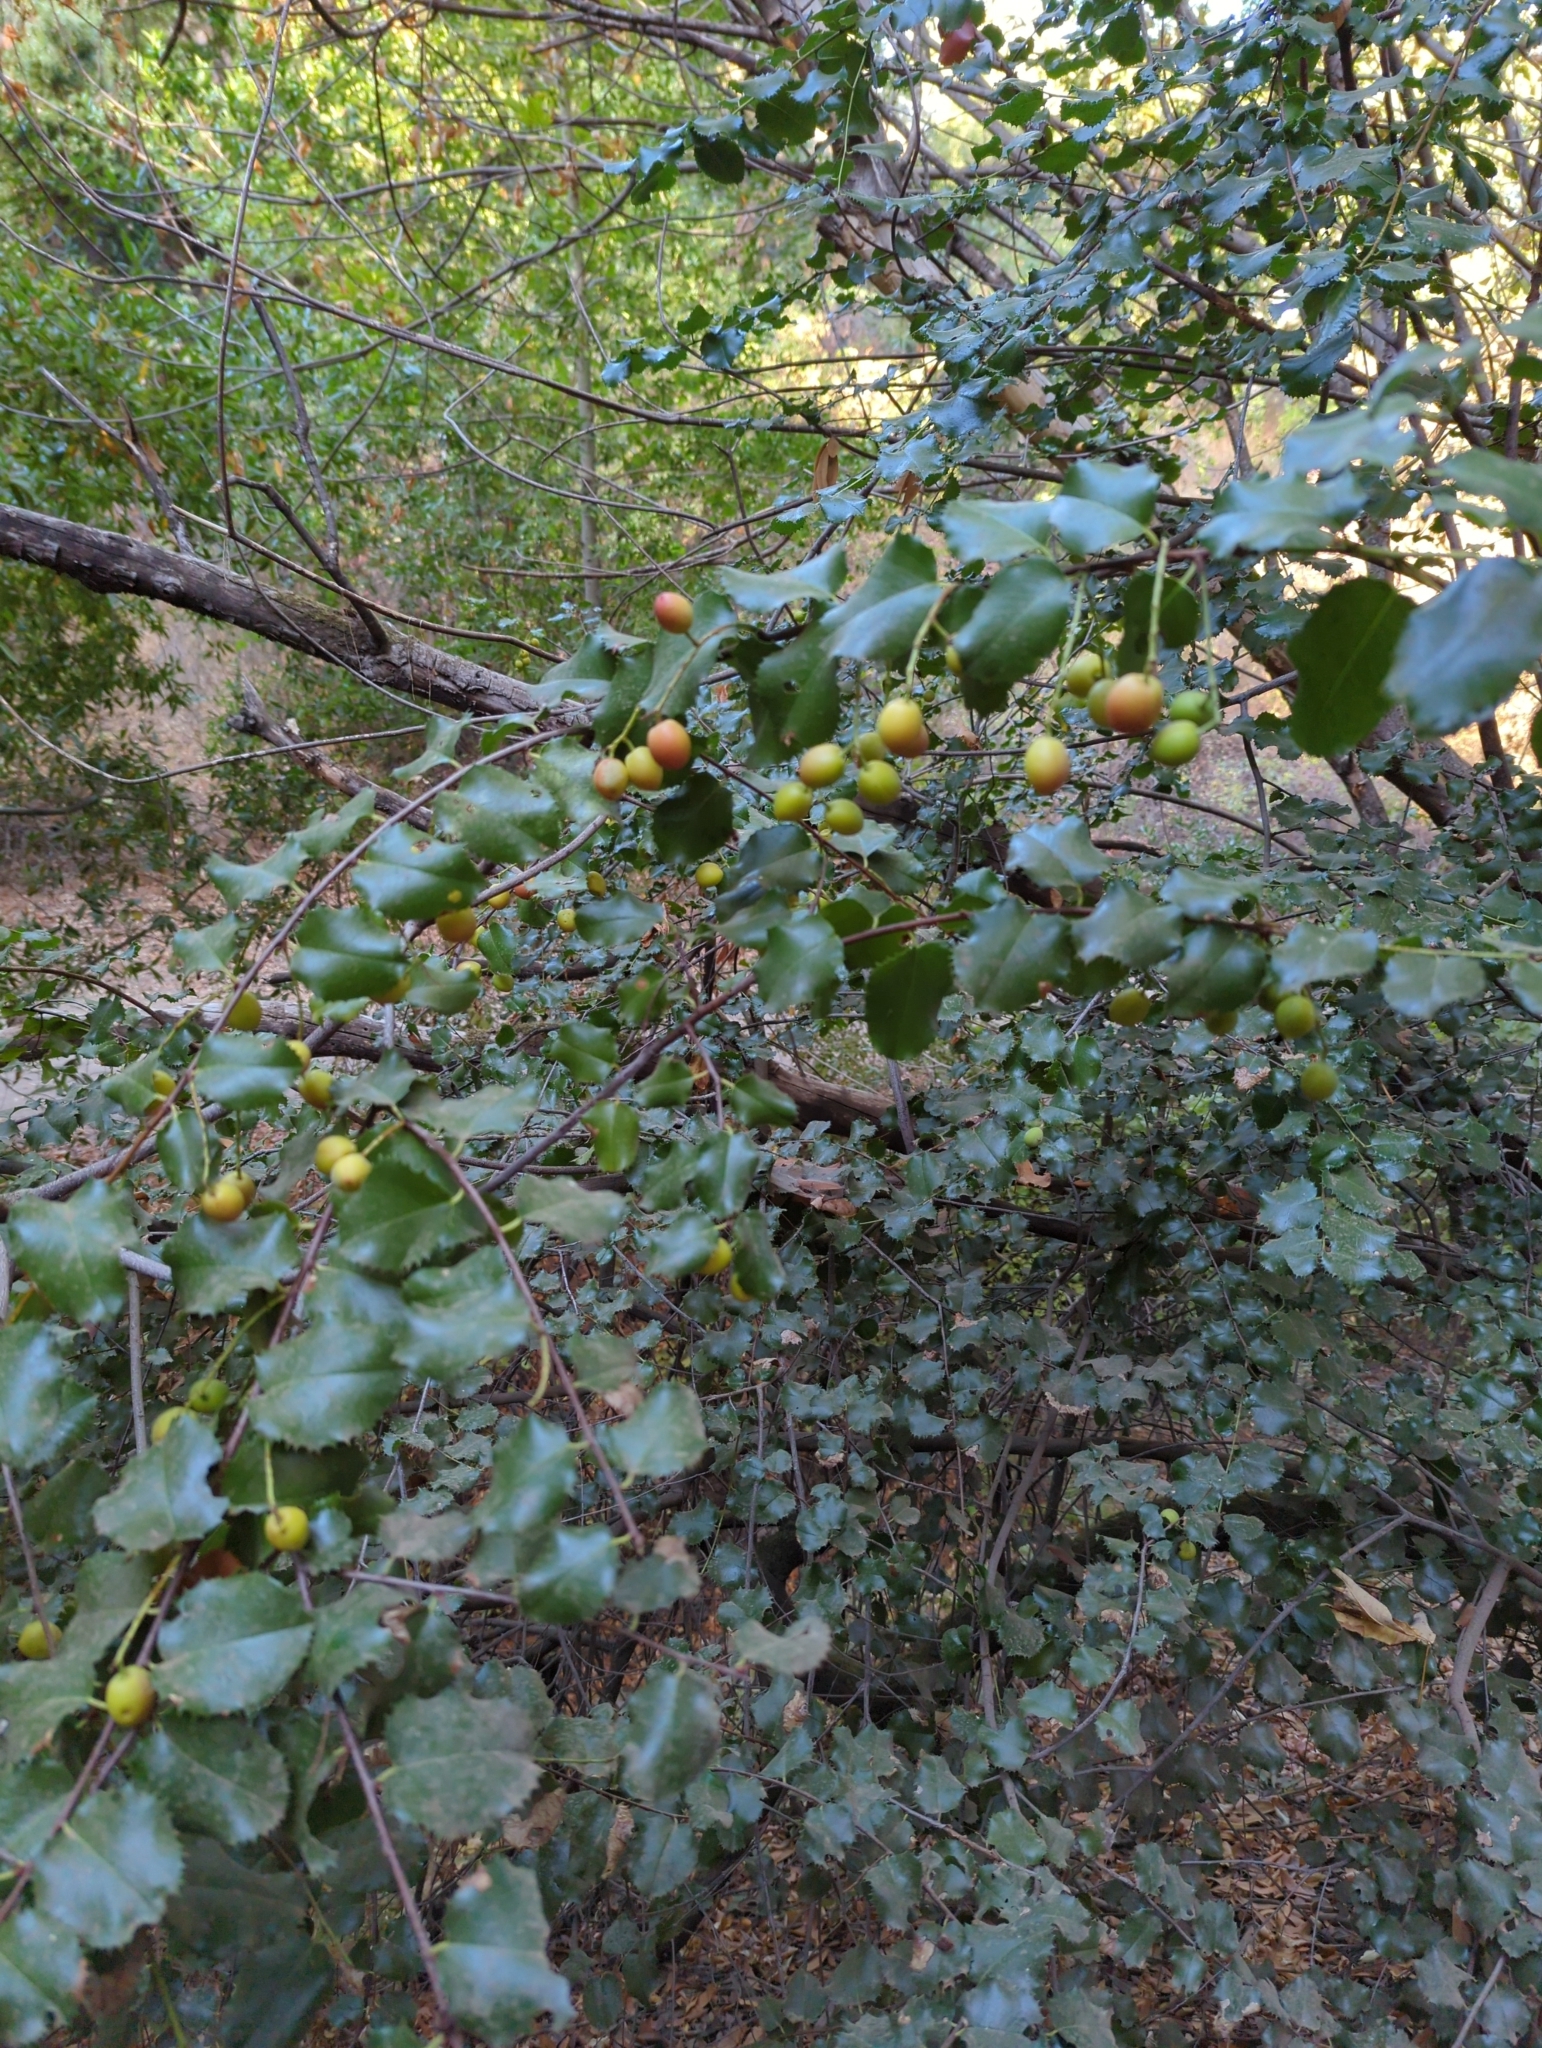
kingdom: Plantae
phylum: Tracheophyta
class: Magnoliopsida
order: Rosales
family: Rosaceae
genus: Prunus
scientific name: Prunus ilicifolia
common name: Hollyleaf cherry
